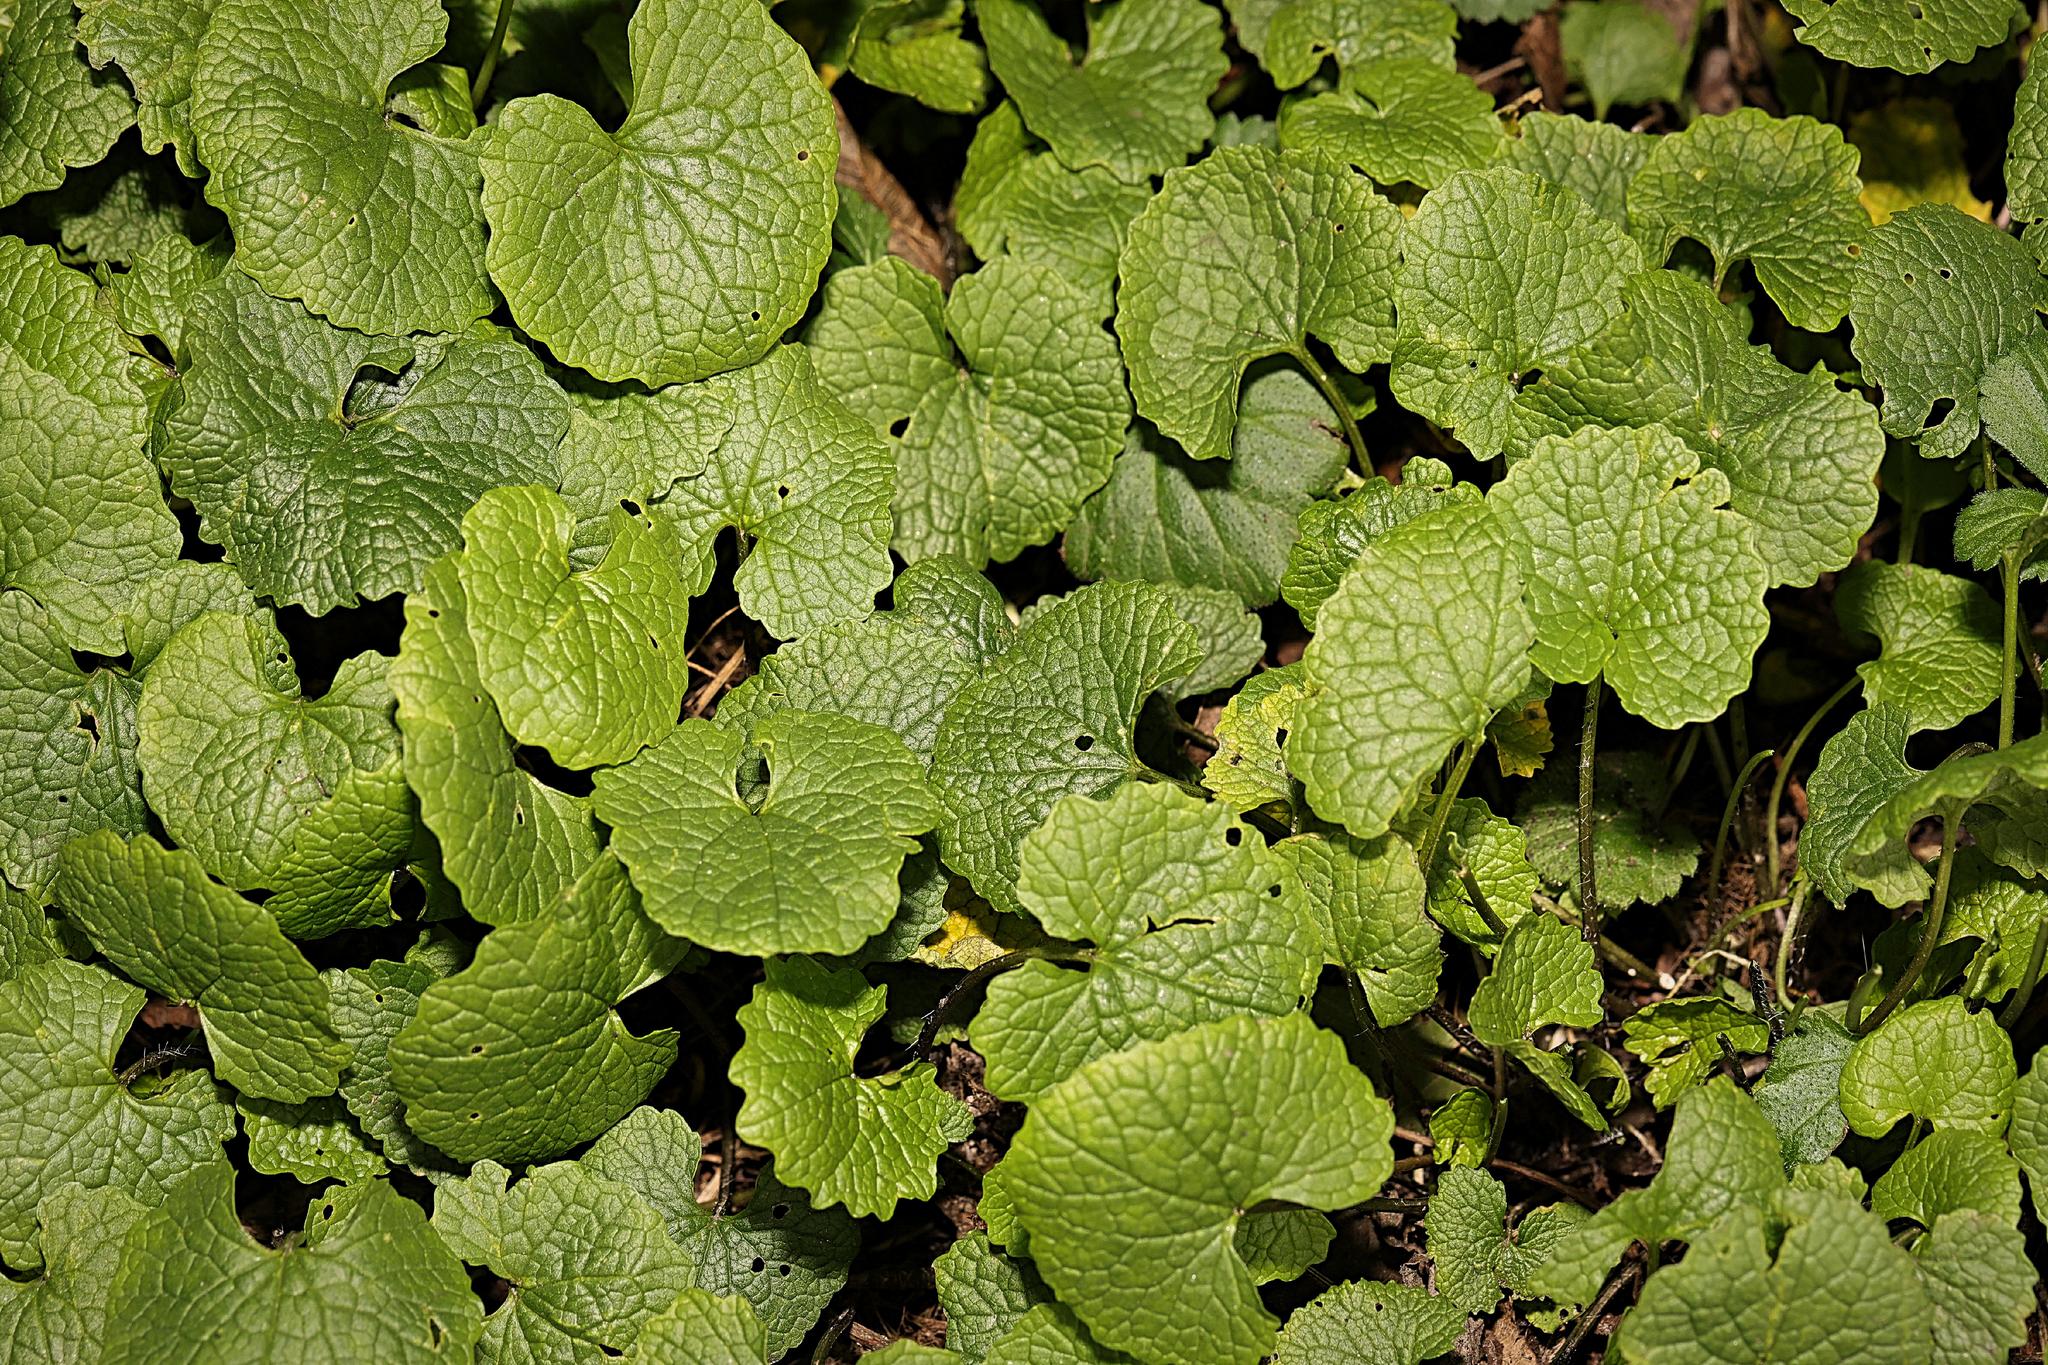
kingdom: Plantae
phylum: Tracheophyta
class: Magnoliopsida
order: Brassicales
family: Brassicaceae
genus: Alliaria
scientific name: Alliaria petiolata
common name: Garlic mustard
